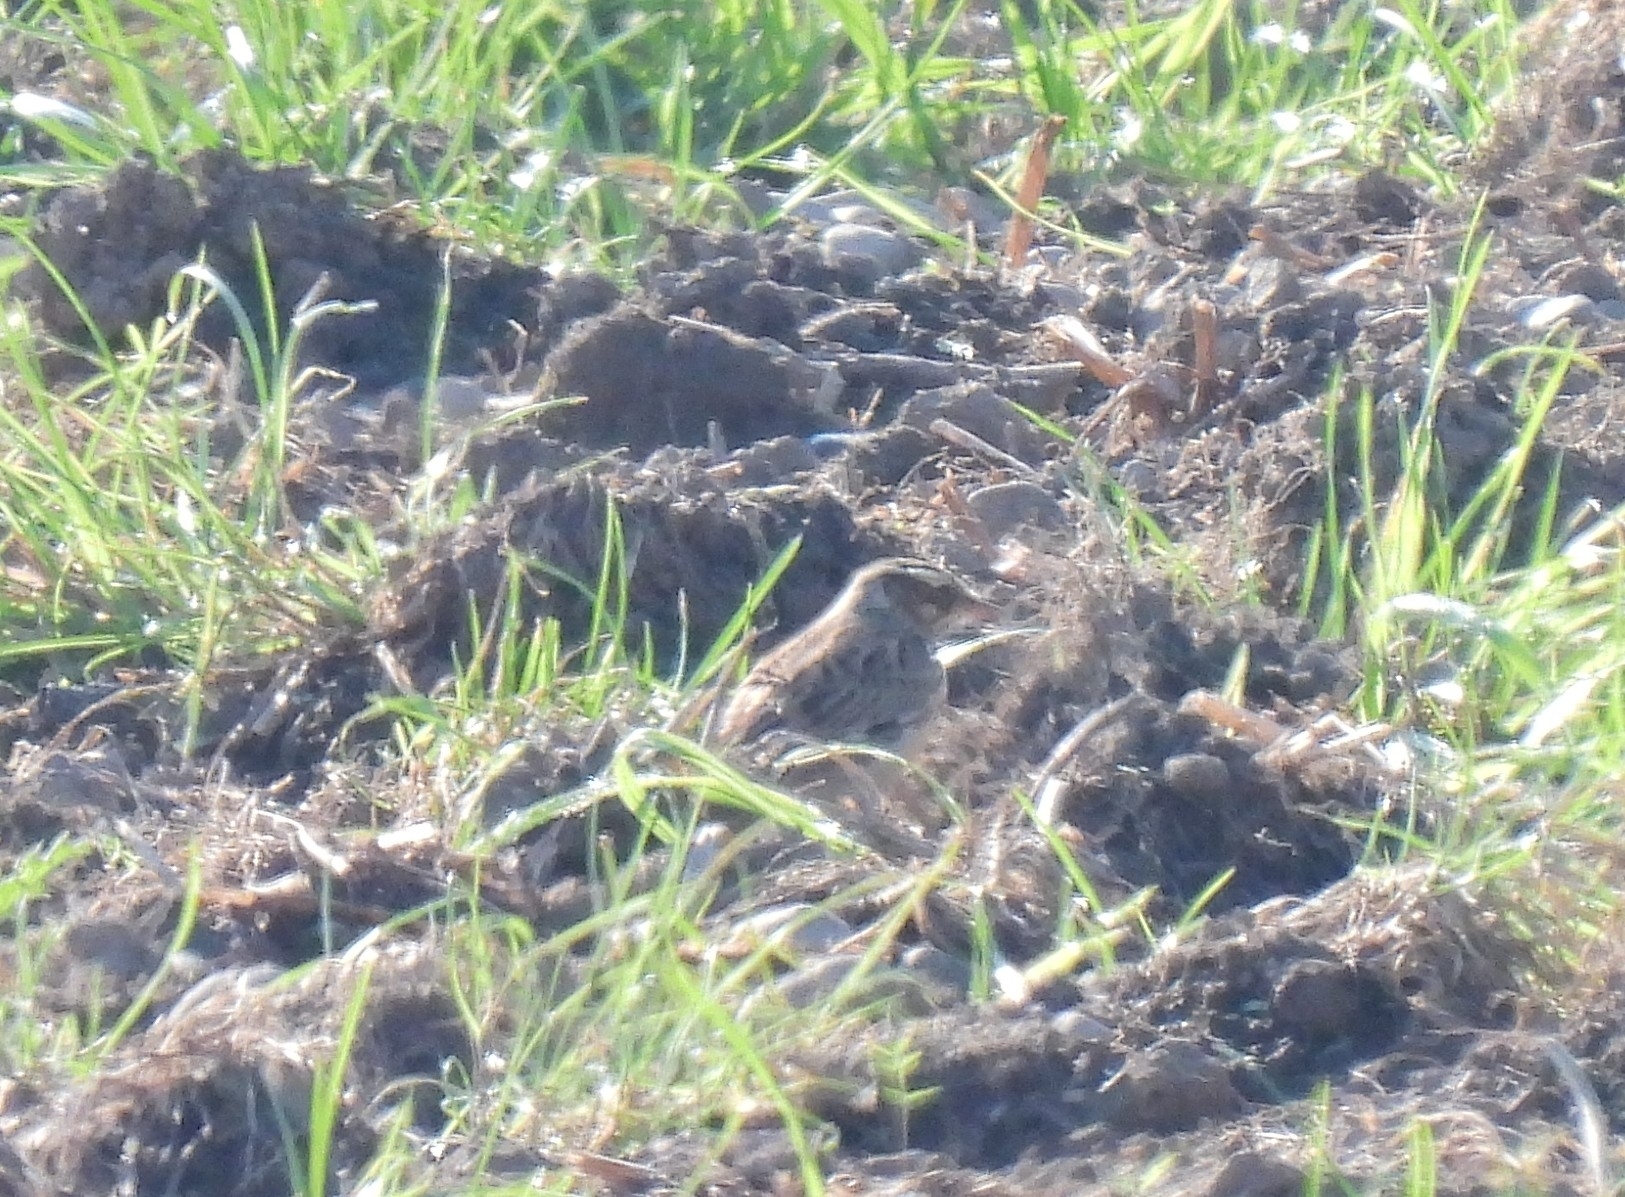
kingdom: Animalia
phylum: Chordata
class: Aves
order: Passeriformes
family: Alaudidae
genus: Lullula
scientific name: Lullula arborea
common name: Woodlark
